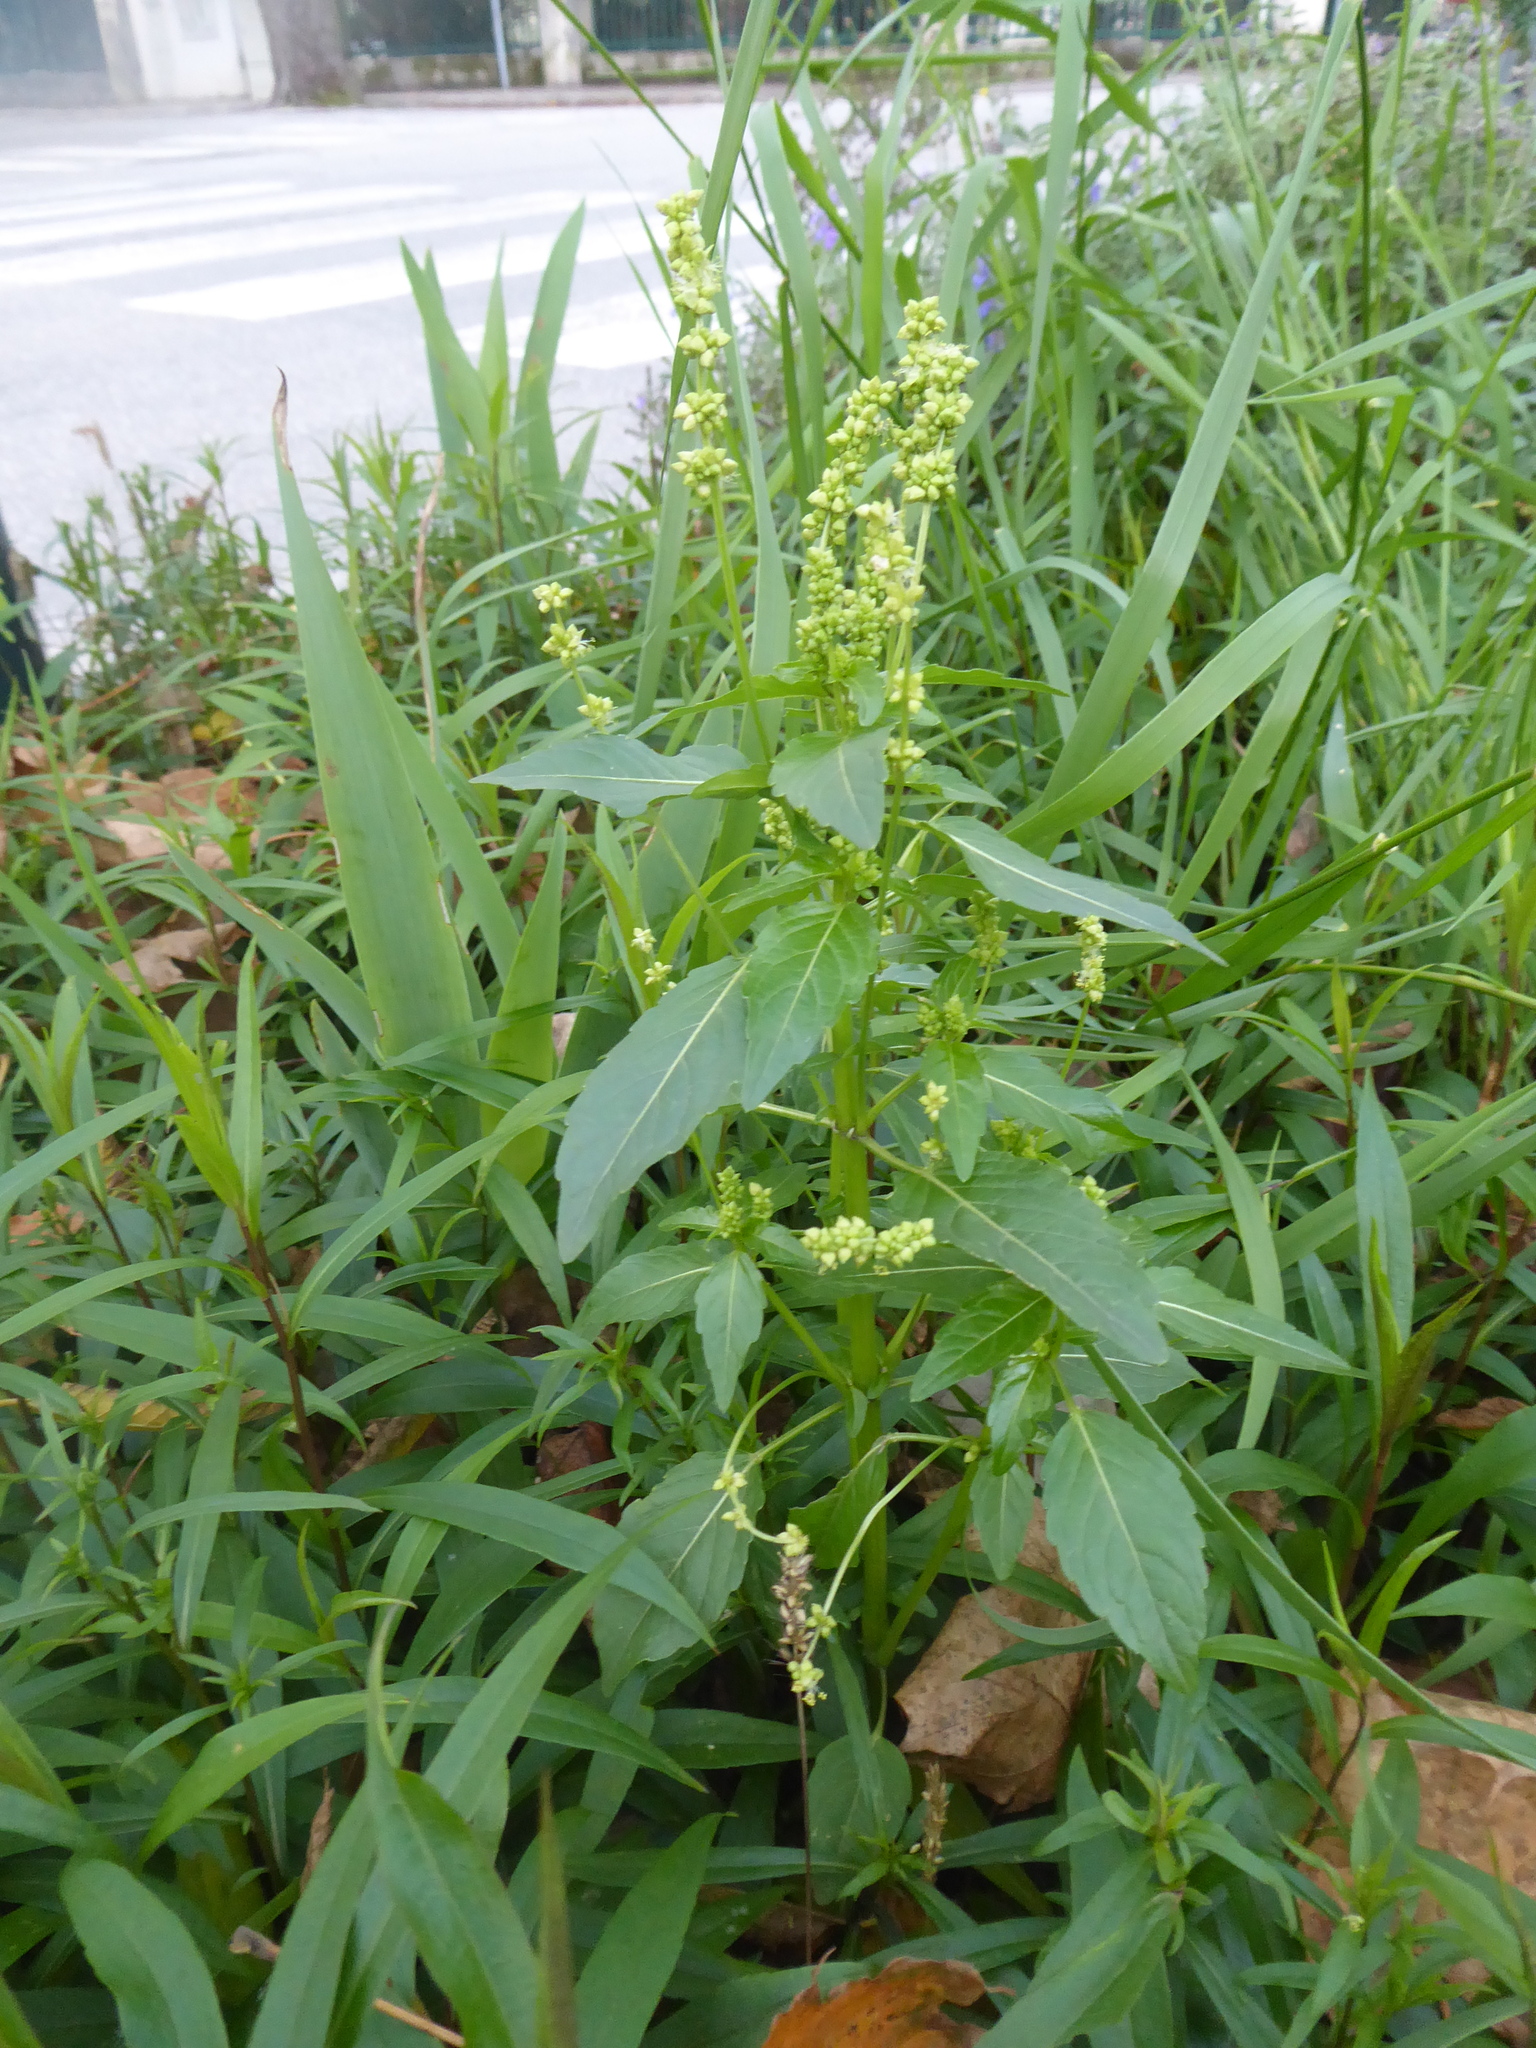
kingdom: Plantae
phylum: Tracheophyta
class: Magnoliopsida
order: Malpighiales
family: Euphorbiaceae
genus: Mercurialis
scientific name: Mercurialis annua
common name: Annual mercury
